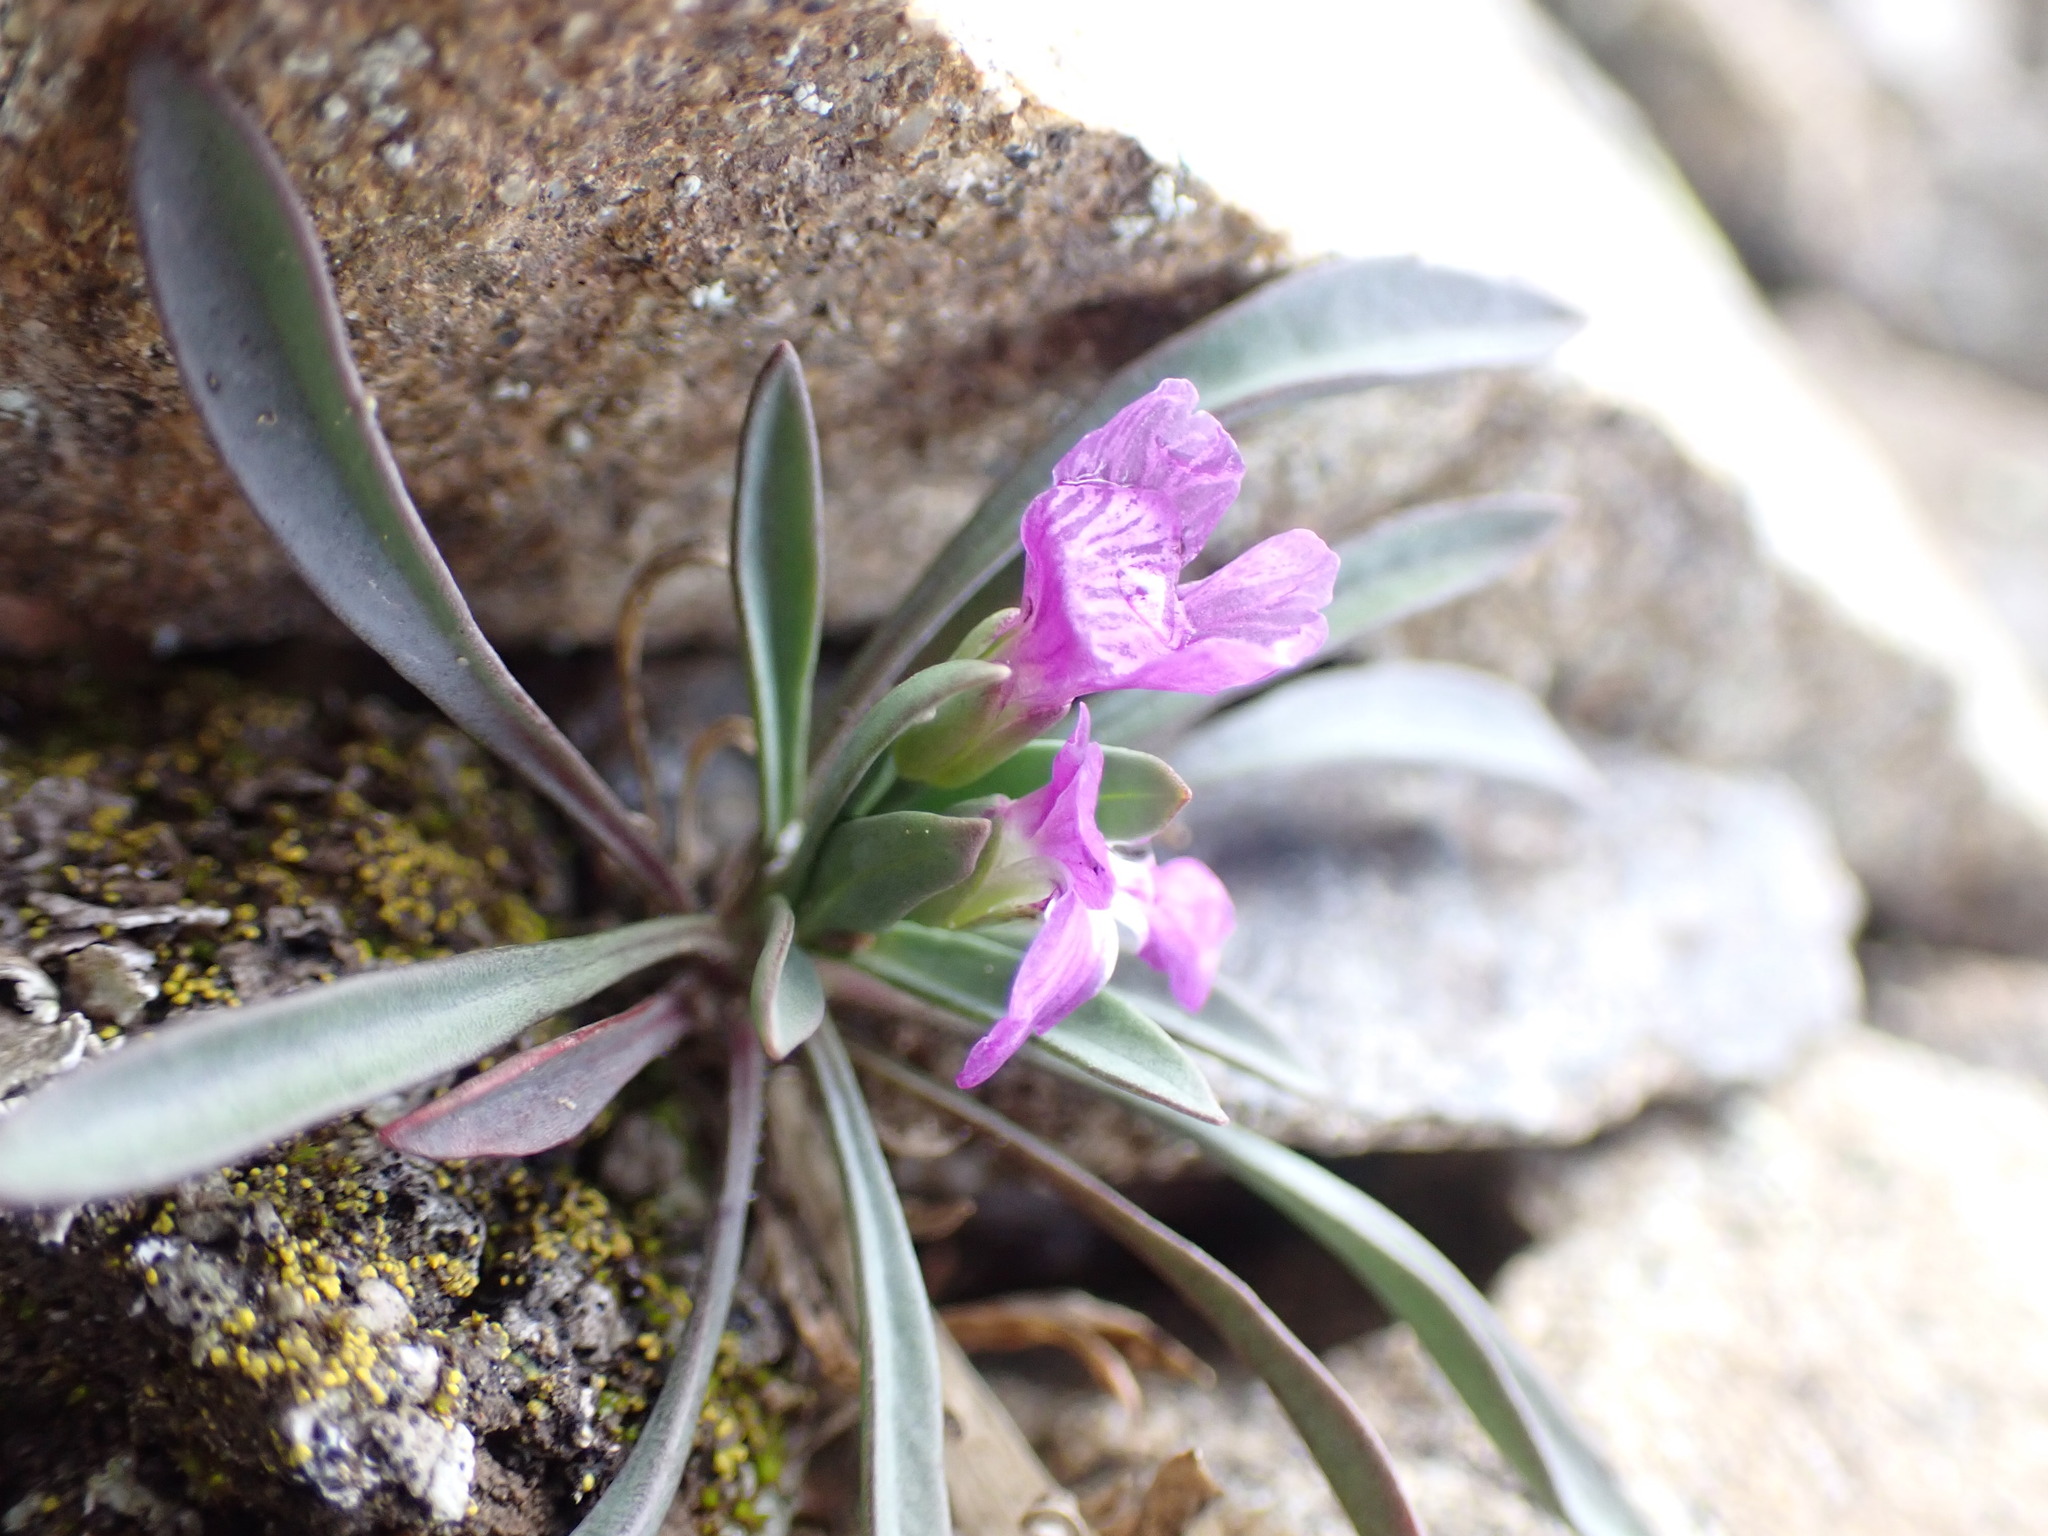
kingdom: Plantae
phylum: Tracheophyta
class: Magnoliopsida
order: Caryophyllales
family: Montiaceae
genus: Lewisia
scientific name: Lewisia pygmaea
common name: Alpine bitterroot
